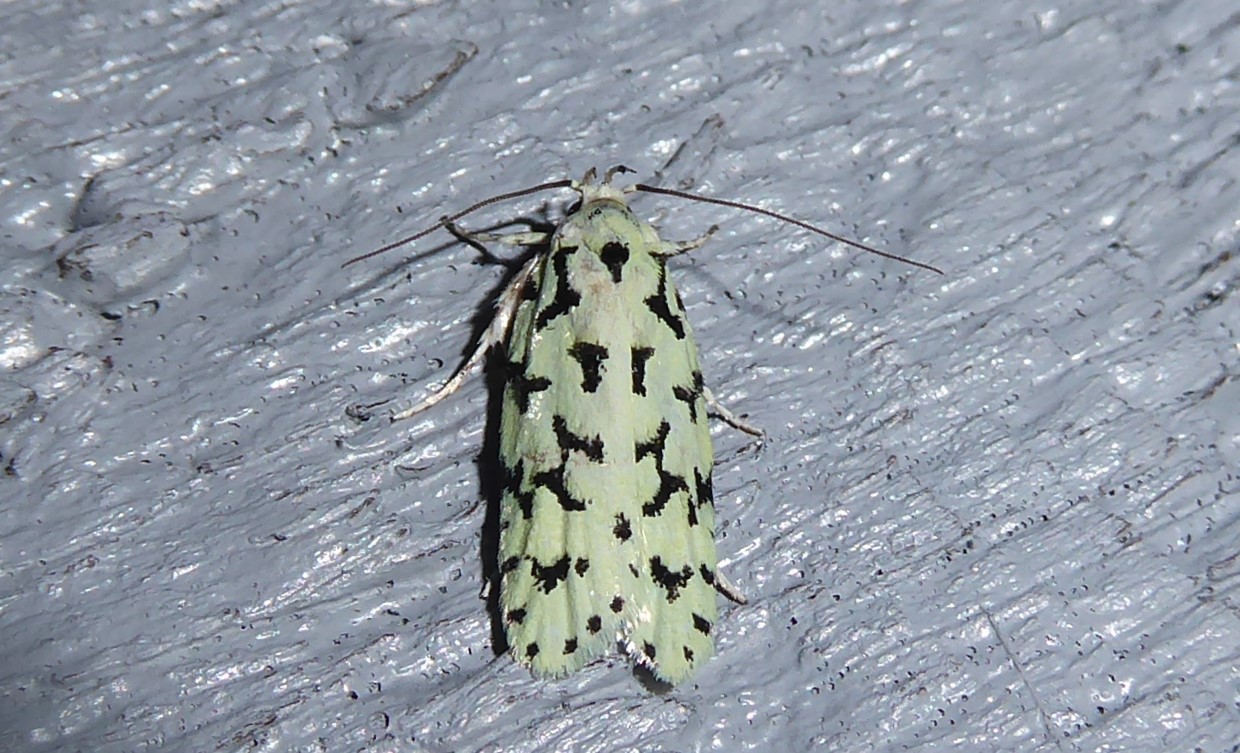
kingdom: Animalia
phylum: Arthropoda
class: Insecta
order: Lepidoptera
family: Oecophoridae
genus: Izatha
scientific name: Izatha huttoni
